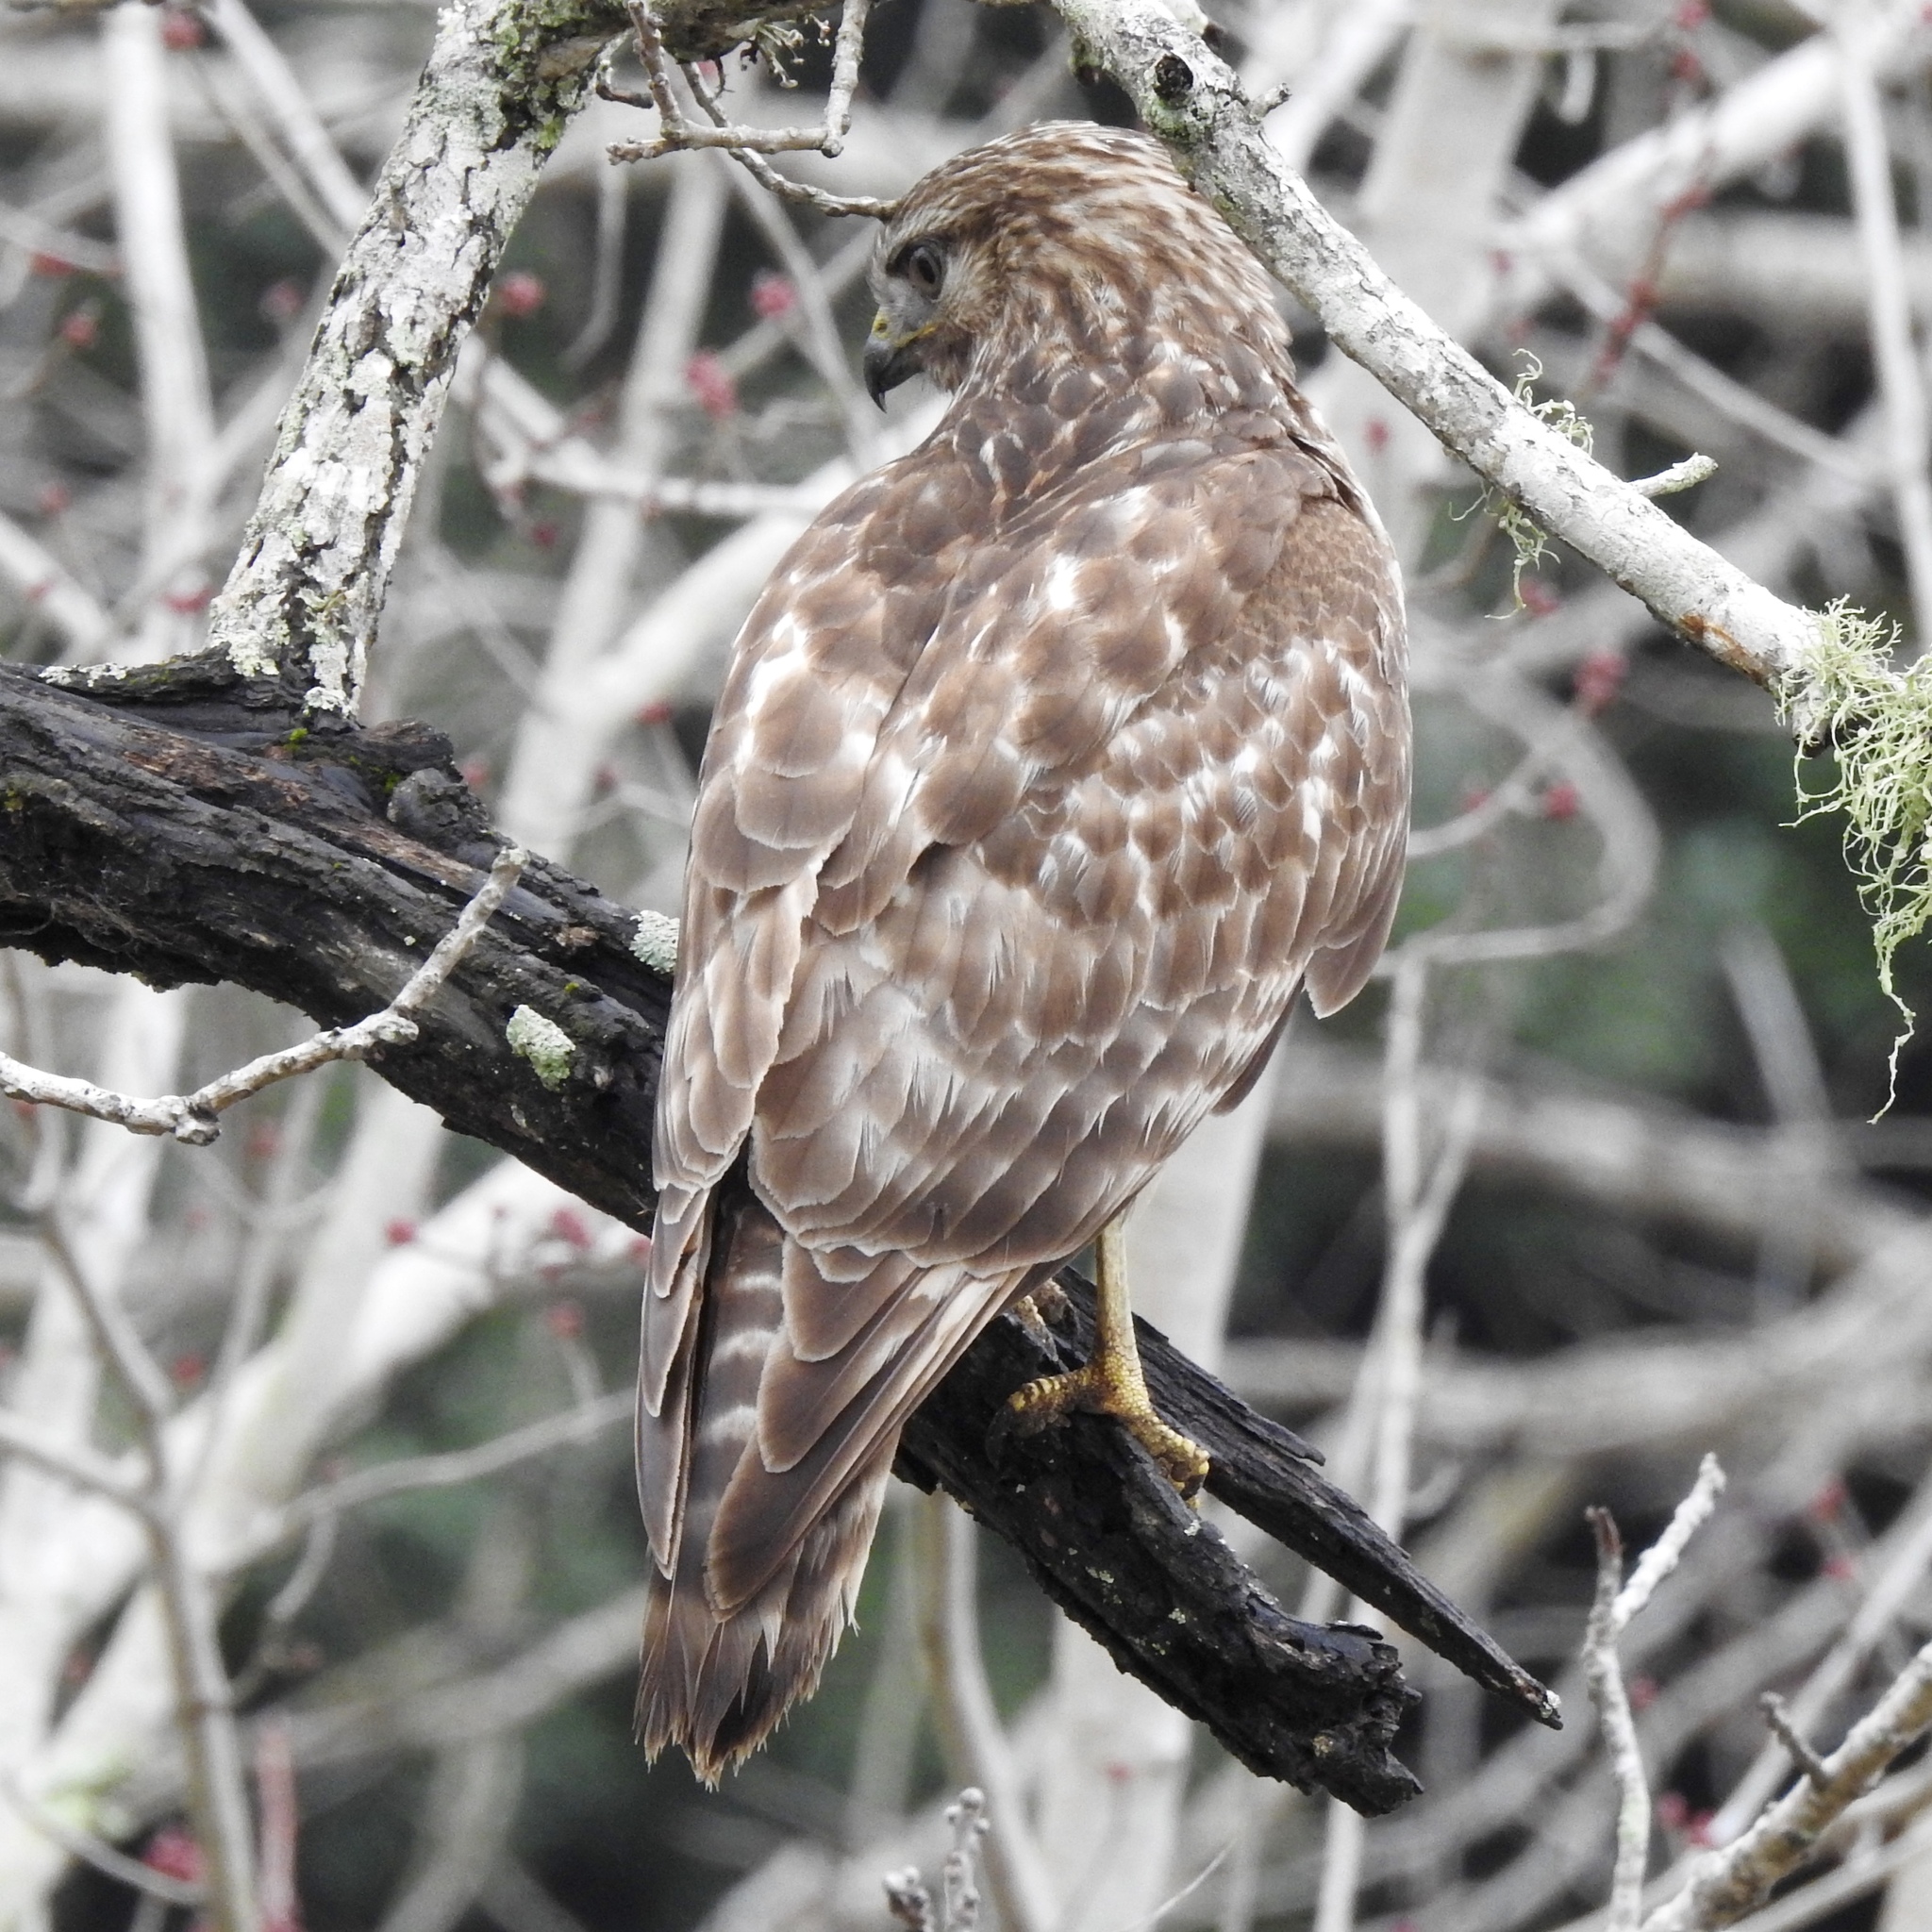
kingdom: Animalia
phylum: Chordata
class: Aves
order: Accipitriformes
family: Accipitridae
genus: Buteo
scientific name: Buteo lineatus
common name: Red-shouldered hawk
